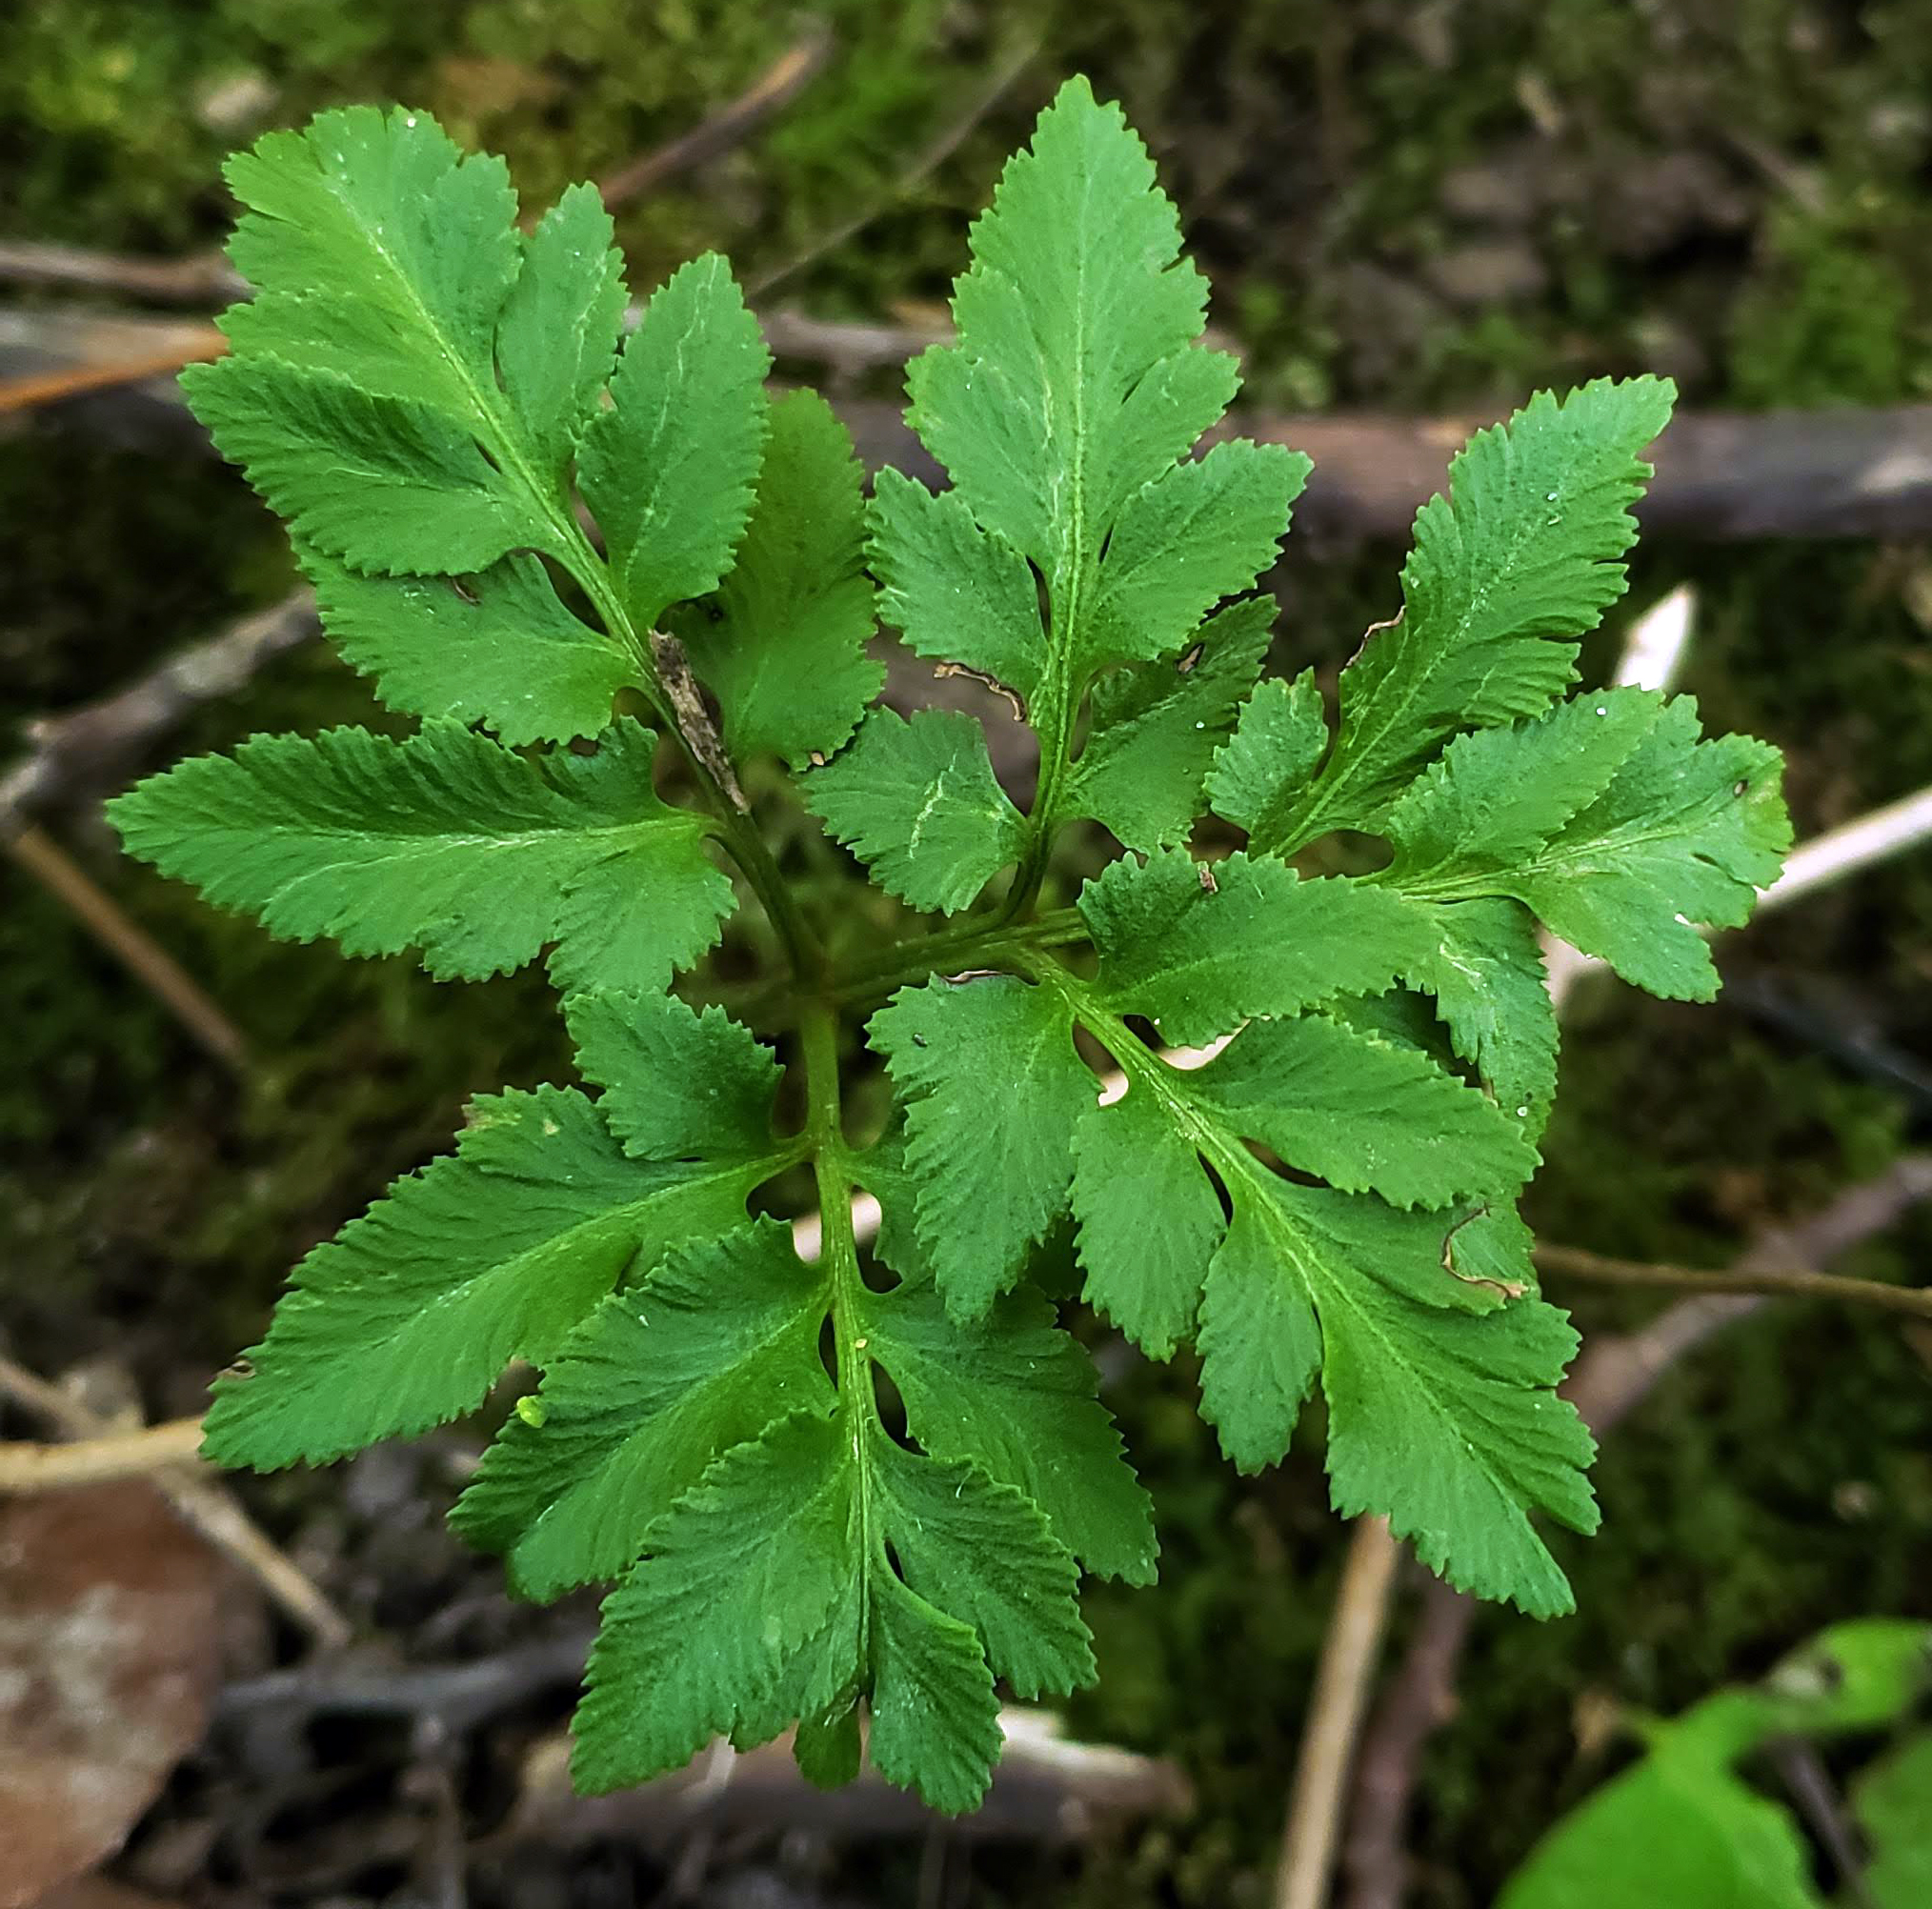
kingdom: Plantae
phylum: Tracheophyta
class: Polypodiopsida
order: Ophioglossales
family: Ophioglossaceae
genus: Sceptridium
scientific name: Sceptridium dissectum
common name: Cut-leaved grapefern
